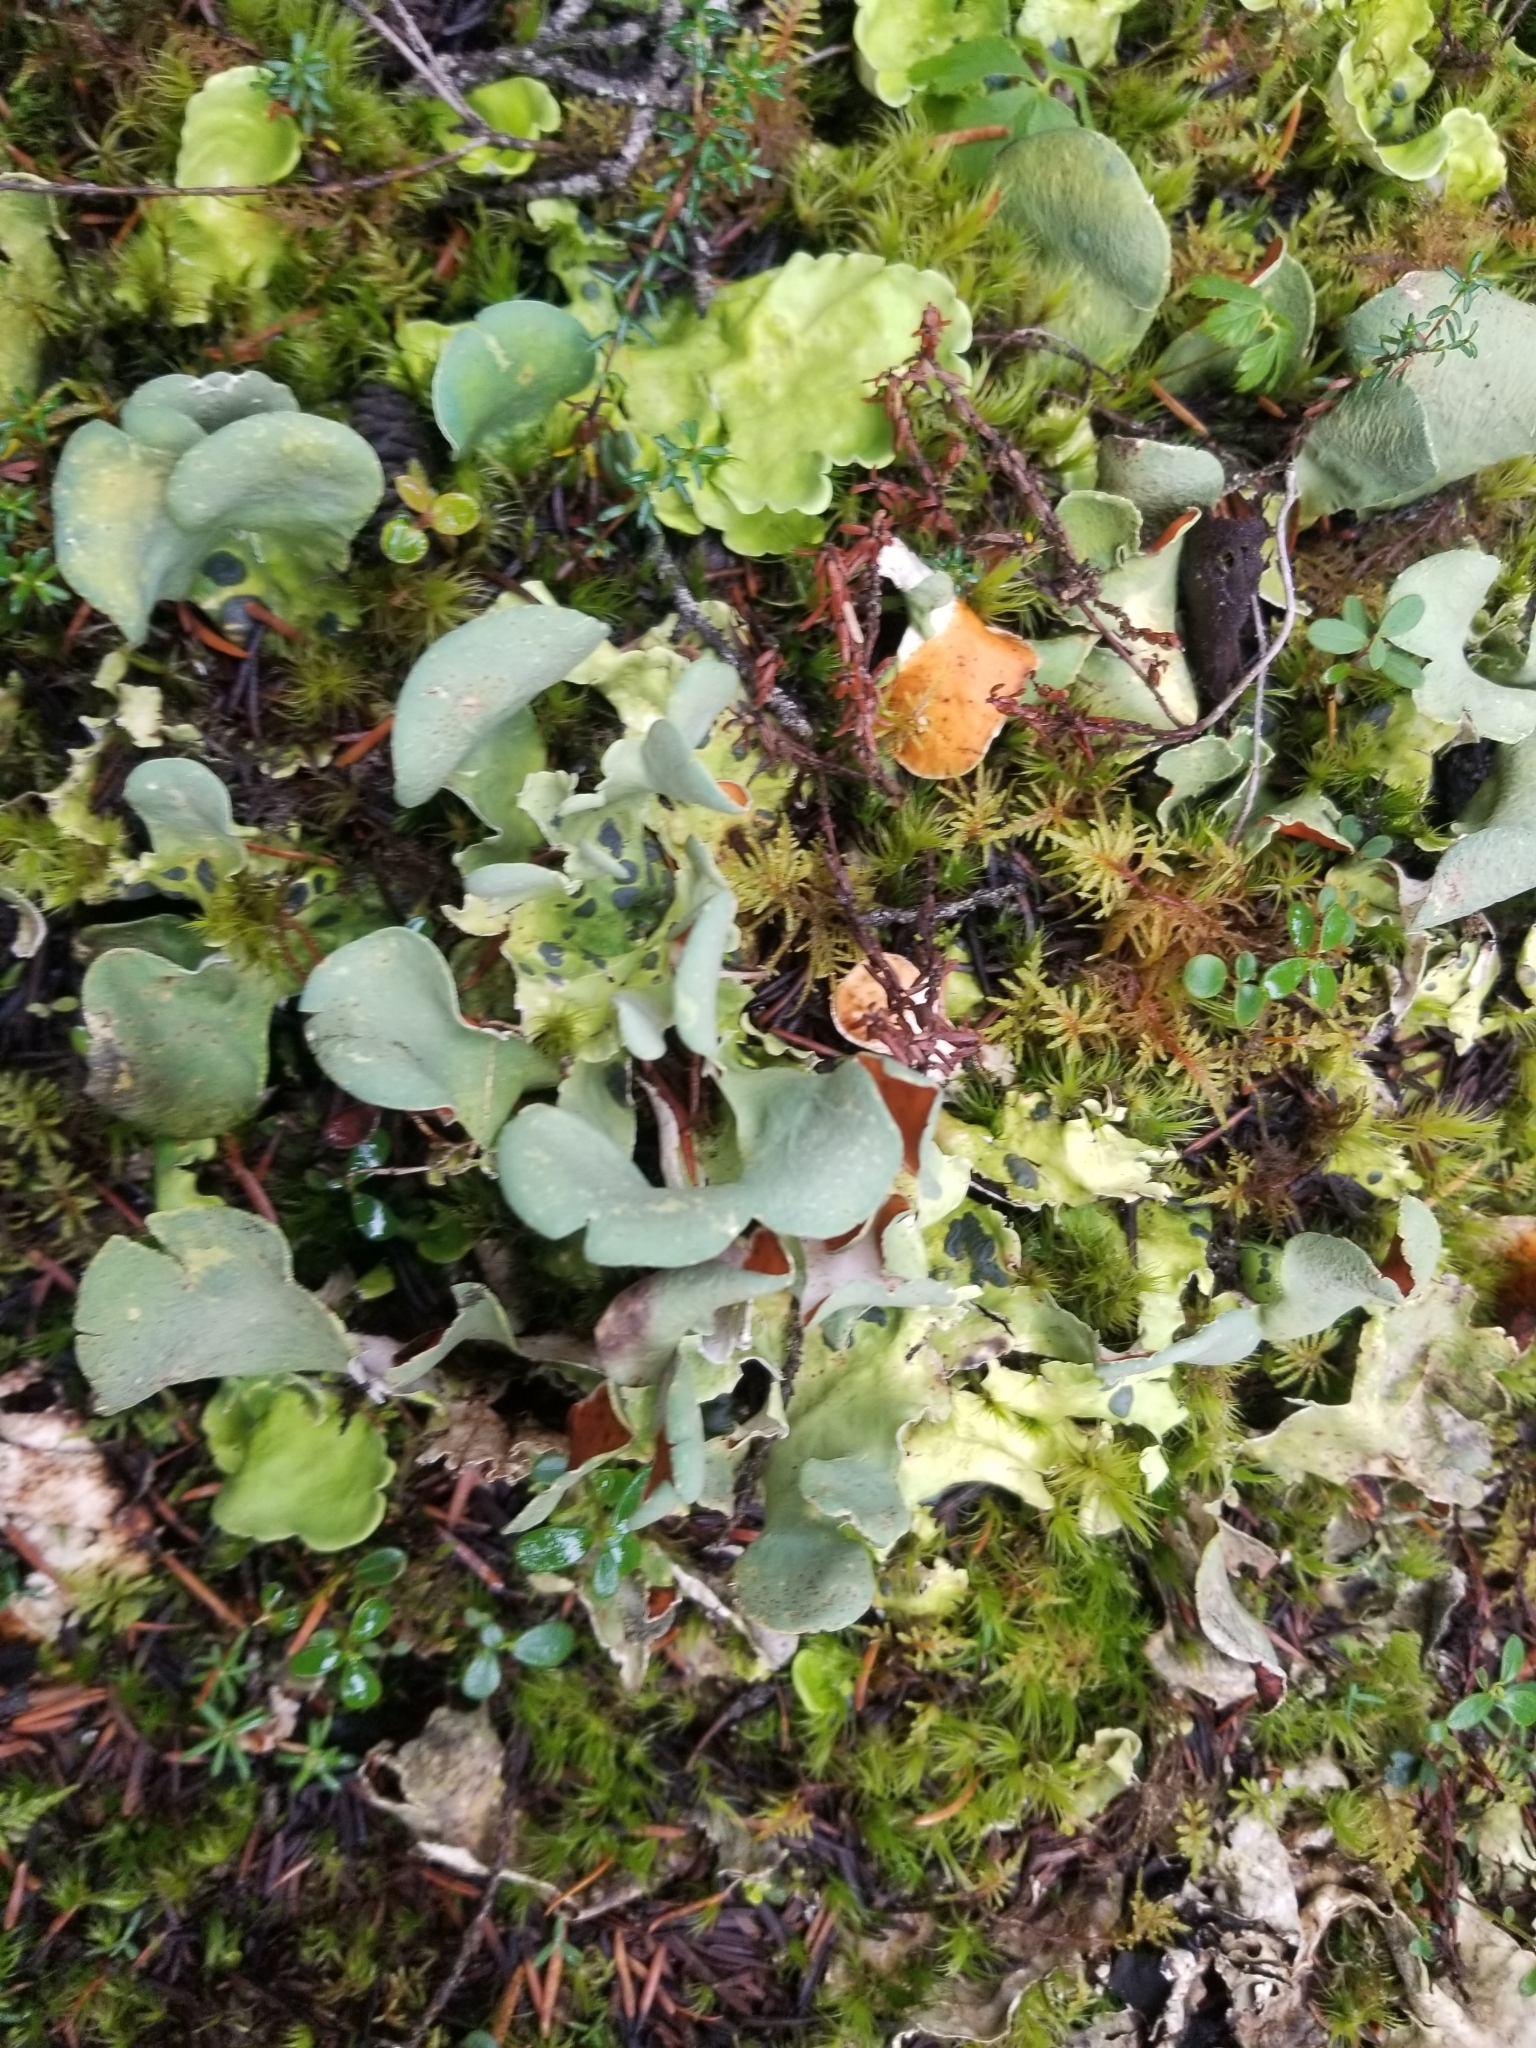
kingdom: Fungi
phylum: Ascomycota
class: Lecanoromycetes
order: Peltigerales
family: Nephromataceae
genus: Nephroma
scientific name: Nephroma arcticum
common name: Arctic kidney-lichen
